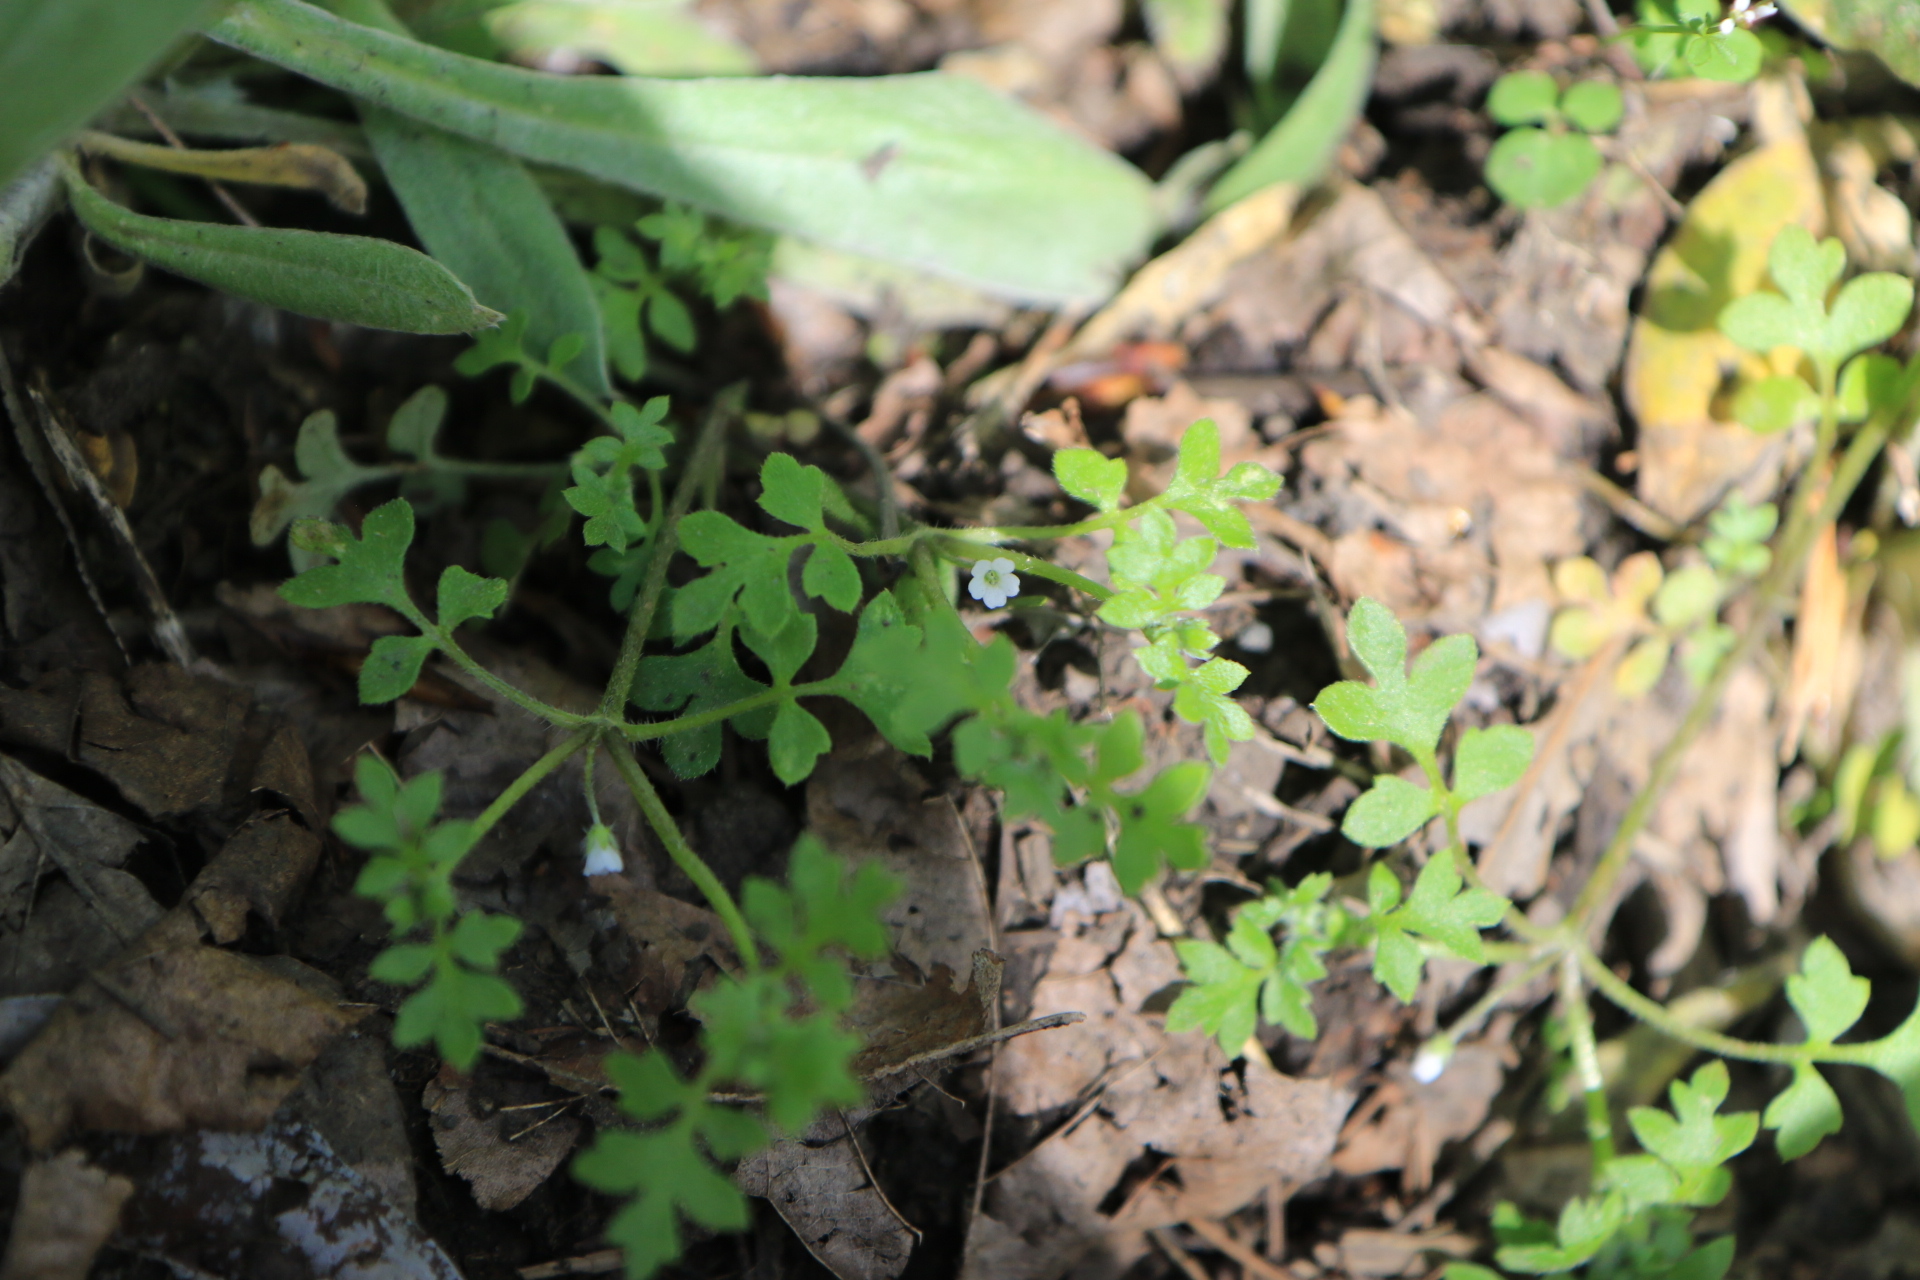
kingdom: Plantae
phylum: Tracheophyta
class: Magnoliopsida
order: Boraginales
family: Hydrophyllaceae
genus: Nemophila
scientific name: Nemophila parviflora
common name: Small-flowered baby-blue-eyes
